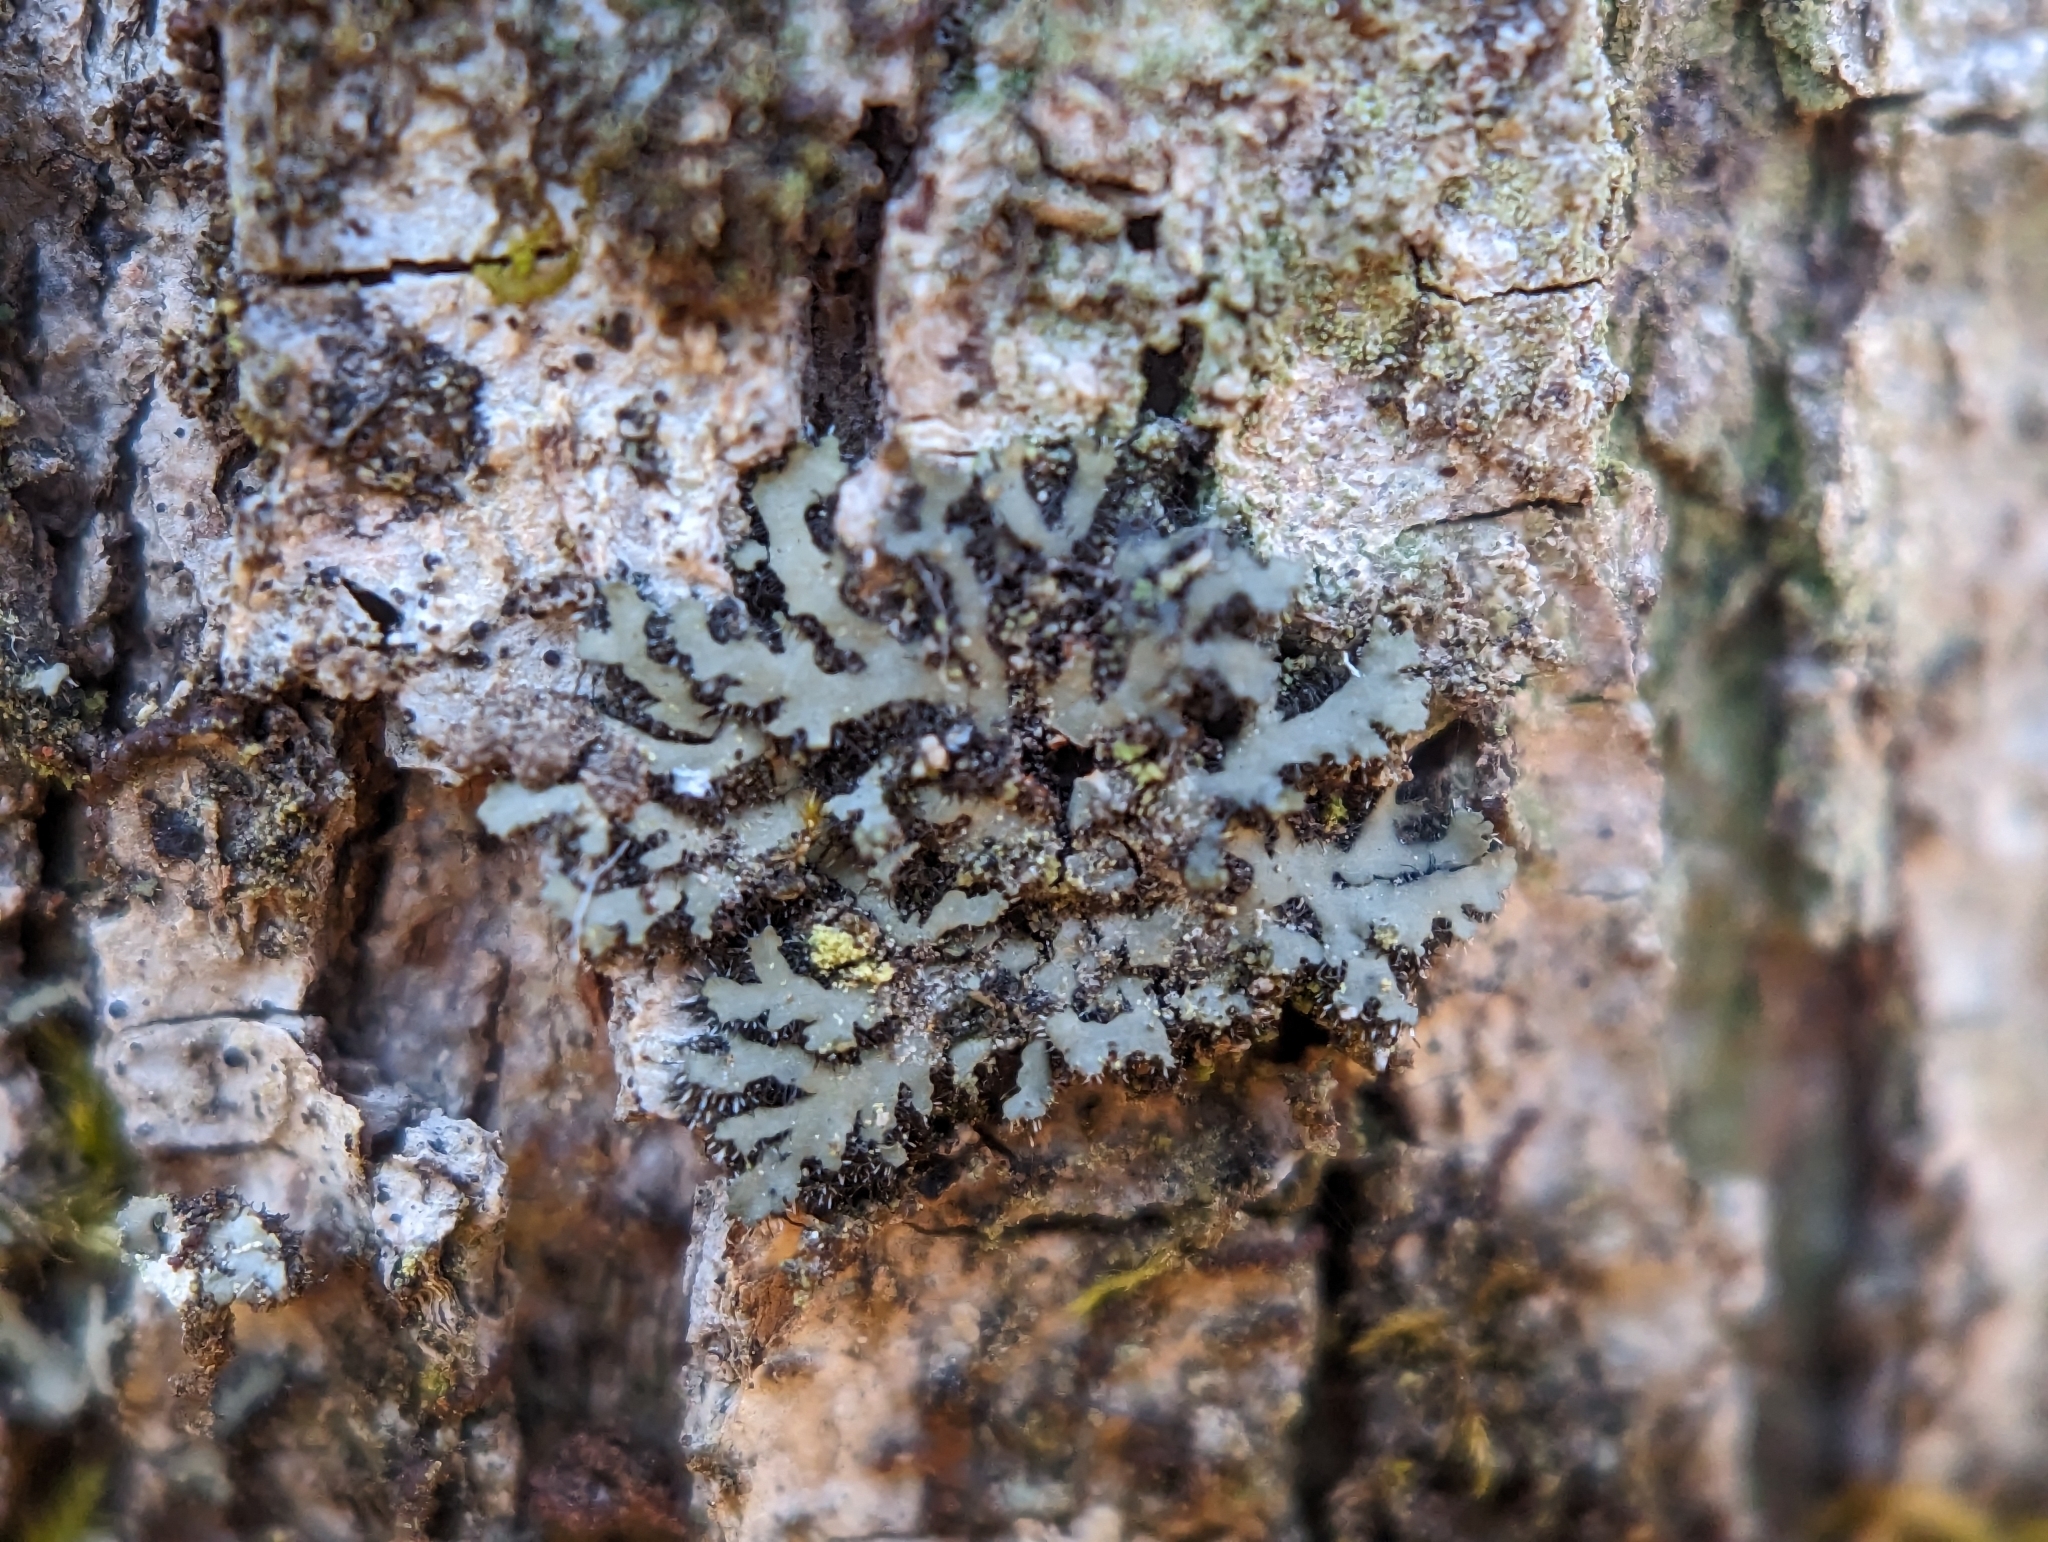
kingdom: Fungi
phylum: Ascomycota
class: Lecanoromycetes
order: Caliciales
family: Physciaceae
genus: Phaeophyscia
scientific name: Phaeophyscia rubropulchra
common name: Orange-cored shadow lichen
